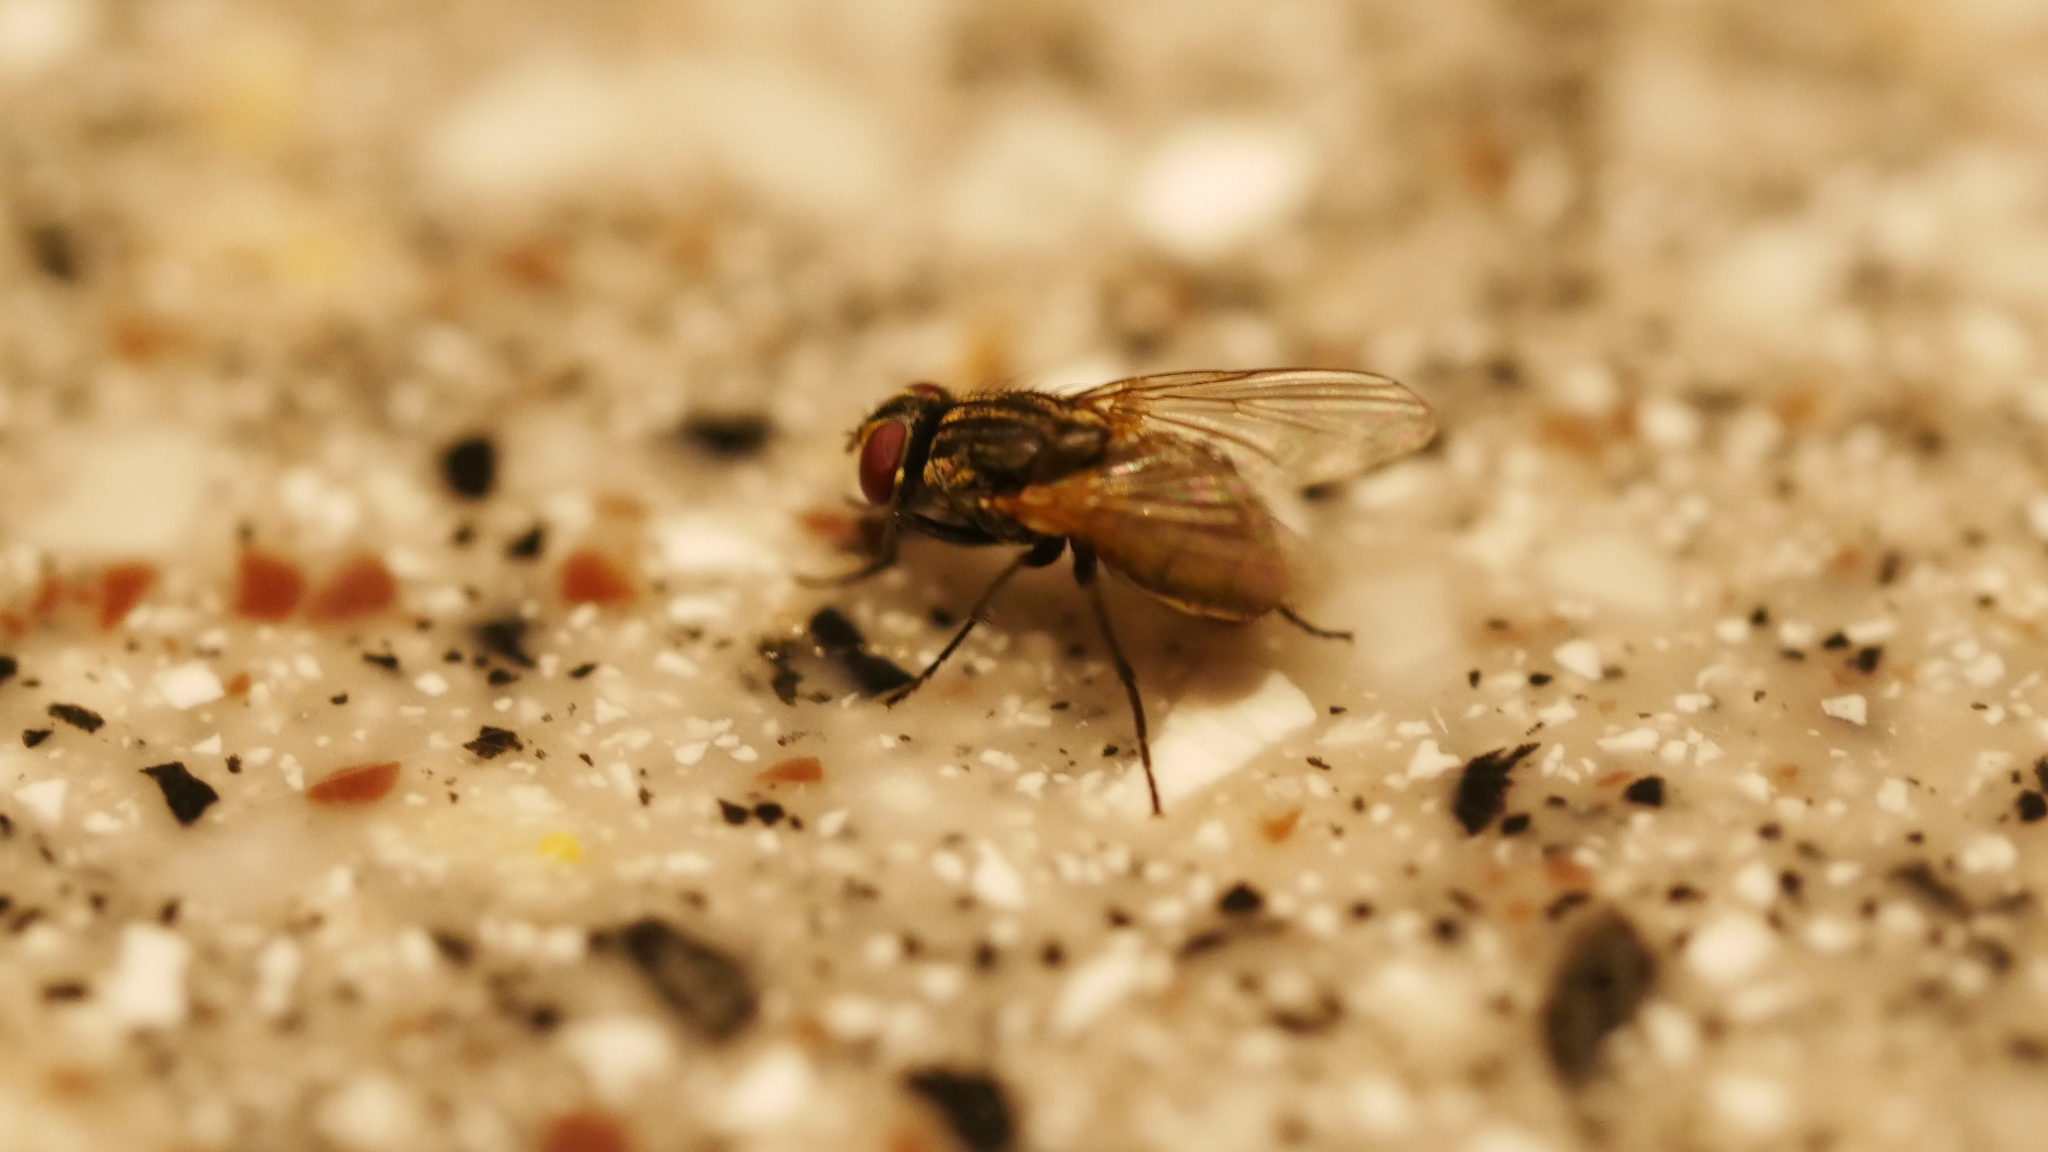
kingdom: Animalia
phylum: Arthropoda
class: Insecta
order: Diptera
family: Muscidae
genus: Musca
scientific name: Musca domestica
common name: House fly
